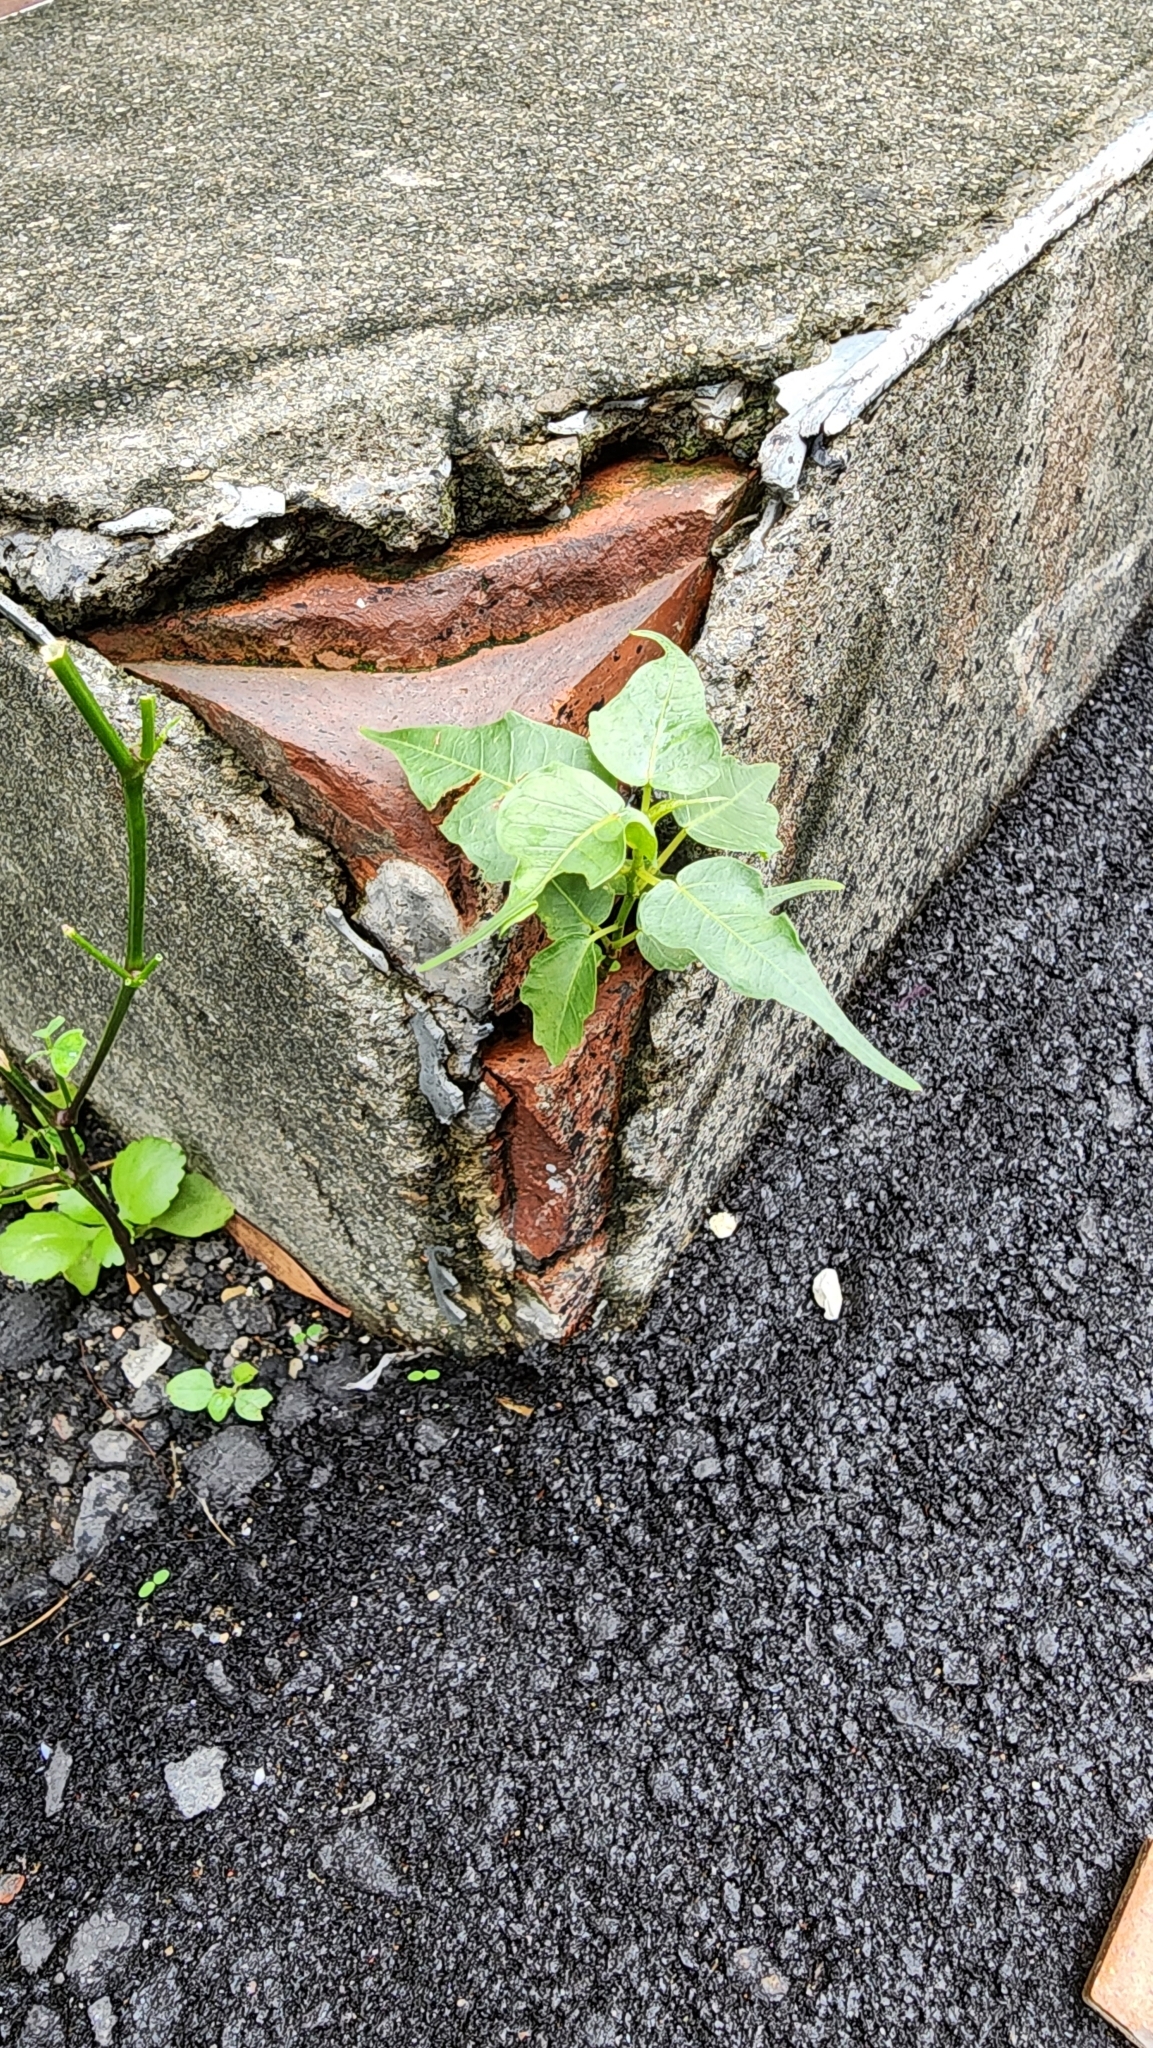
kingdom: Plantae
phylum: Tracheophyta
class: Magnoliopsida
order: Rosales
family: Moraceae
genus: Ficus
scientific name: Ficus religiosa
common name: Bodhi tree
